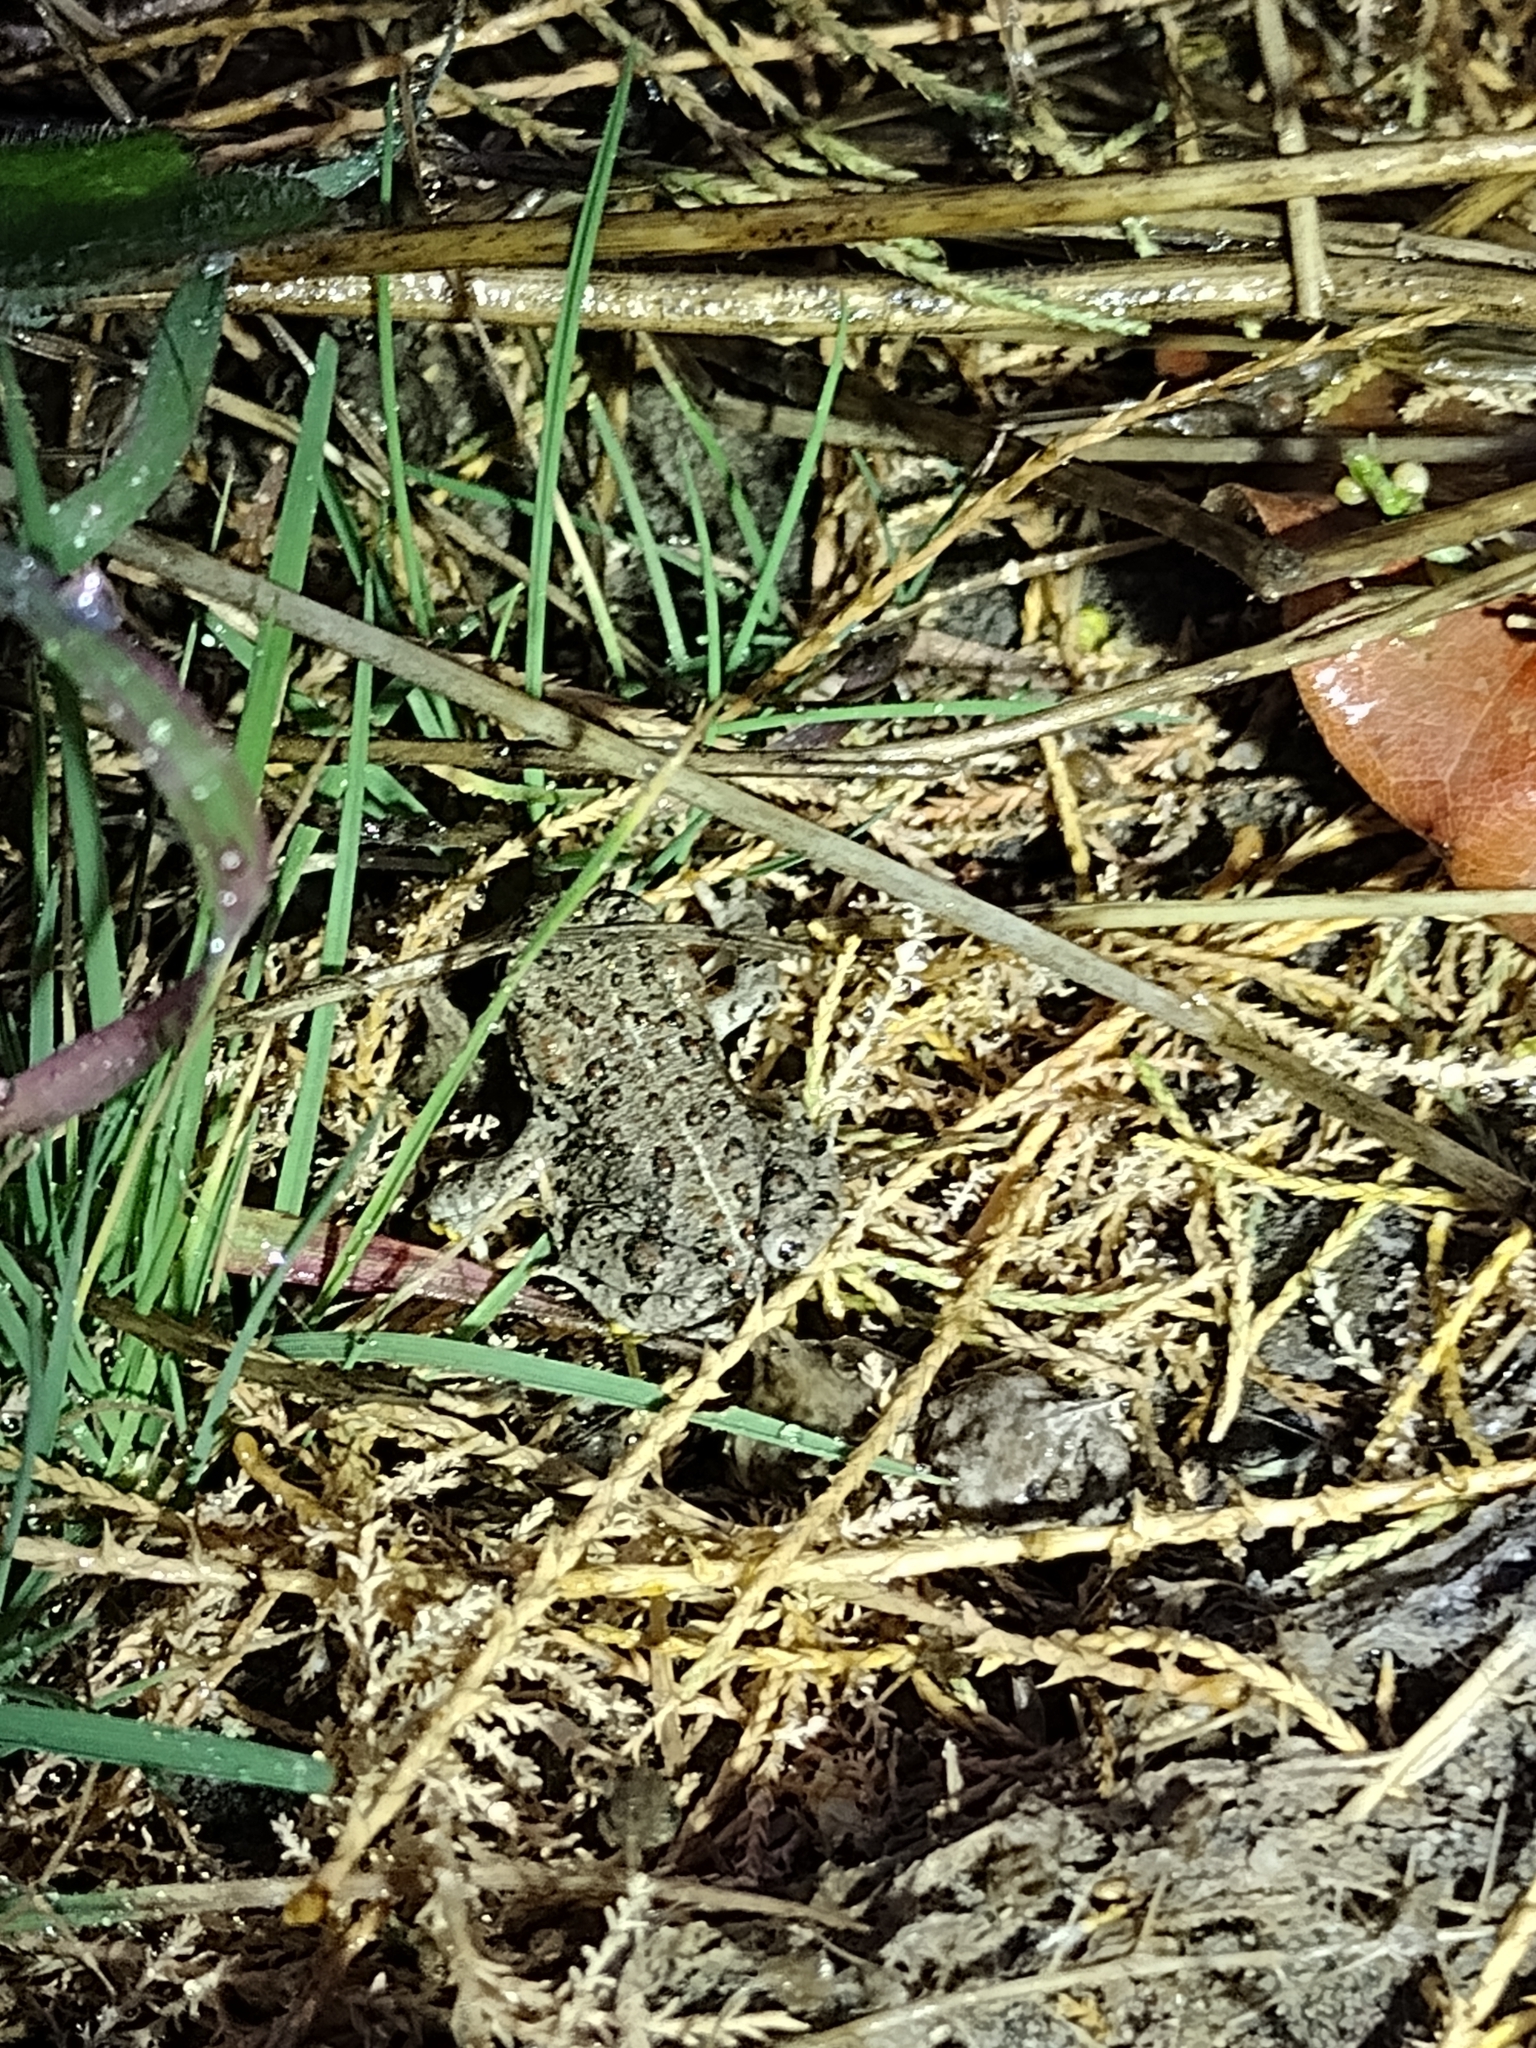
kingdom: Animalia
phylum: Chordata
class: Amphibia
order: Anura
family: Bufonidae
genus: Anaxyrus
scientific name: Anaxyrus boreas
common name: Western toad
